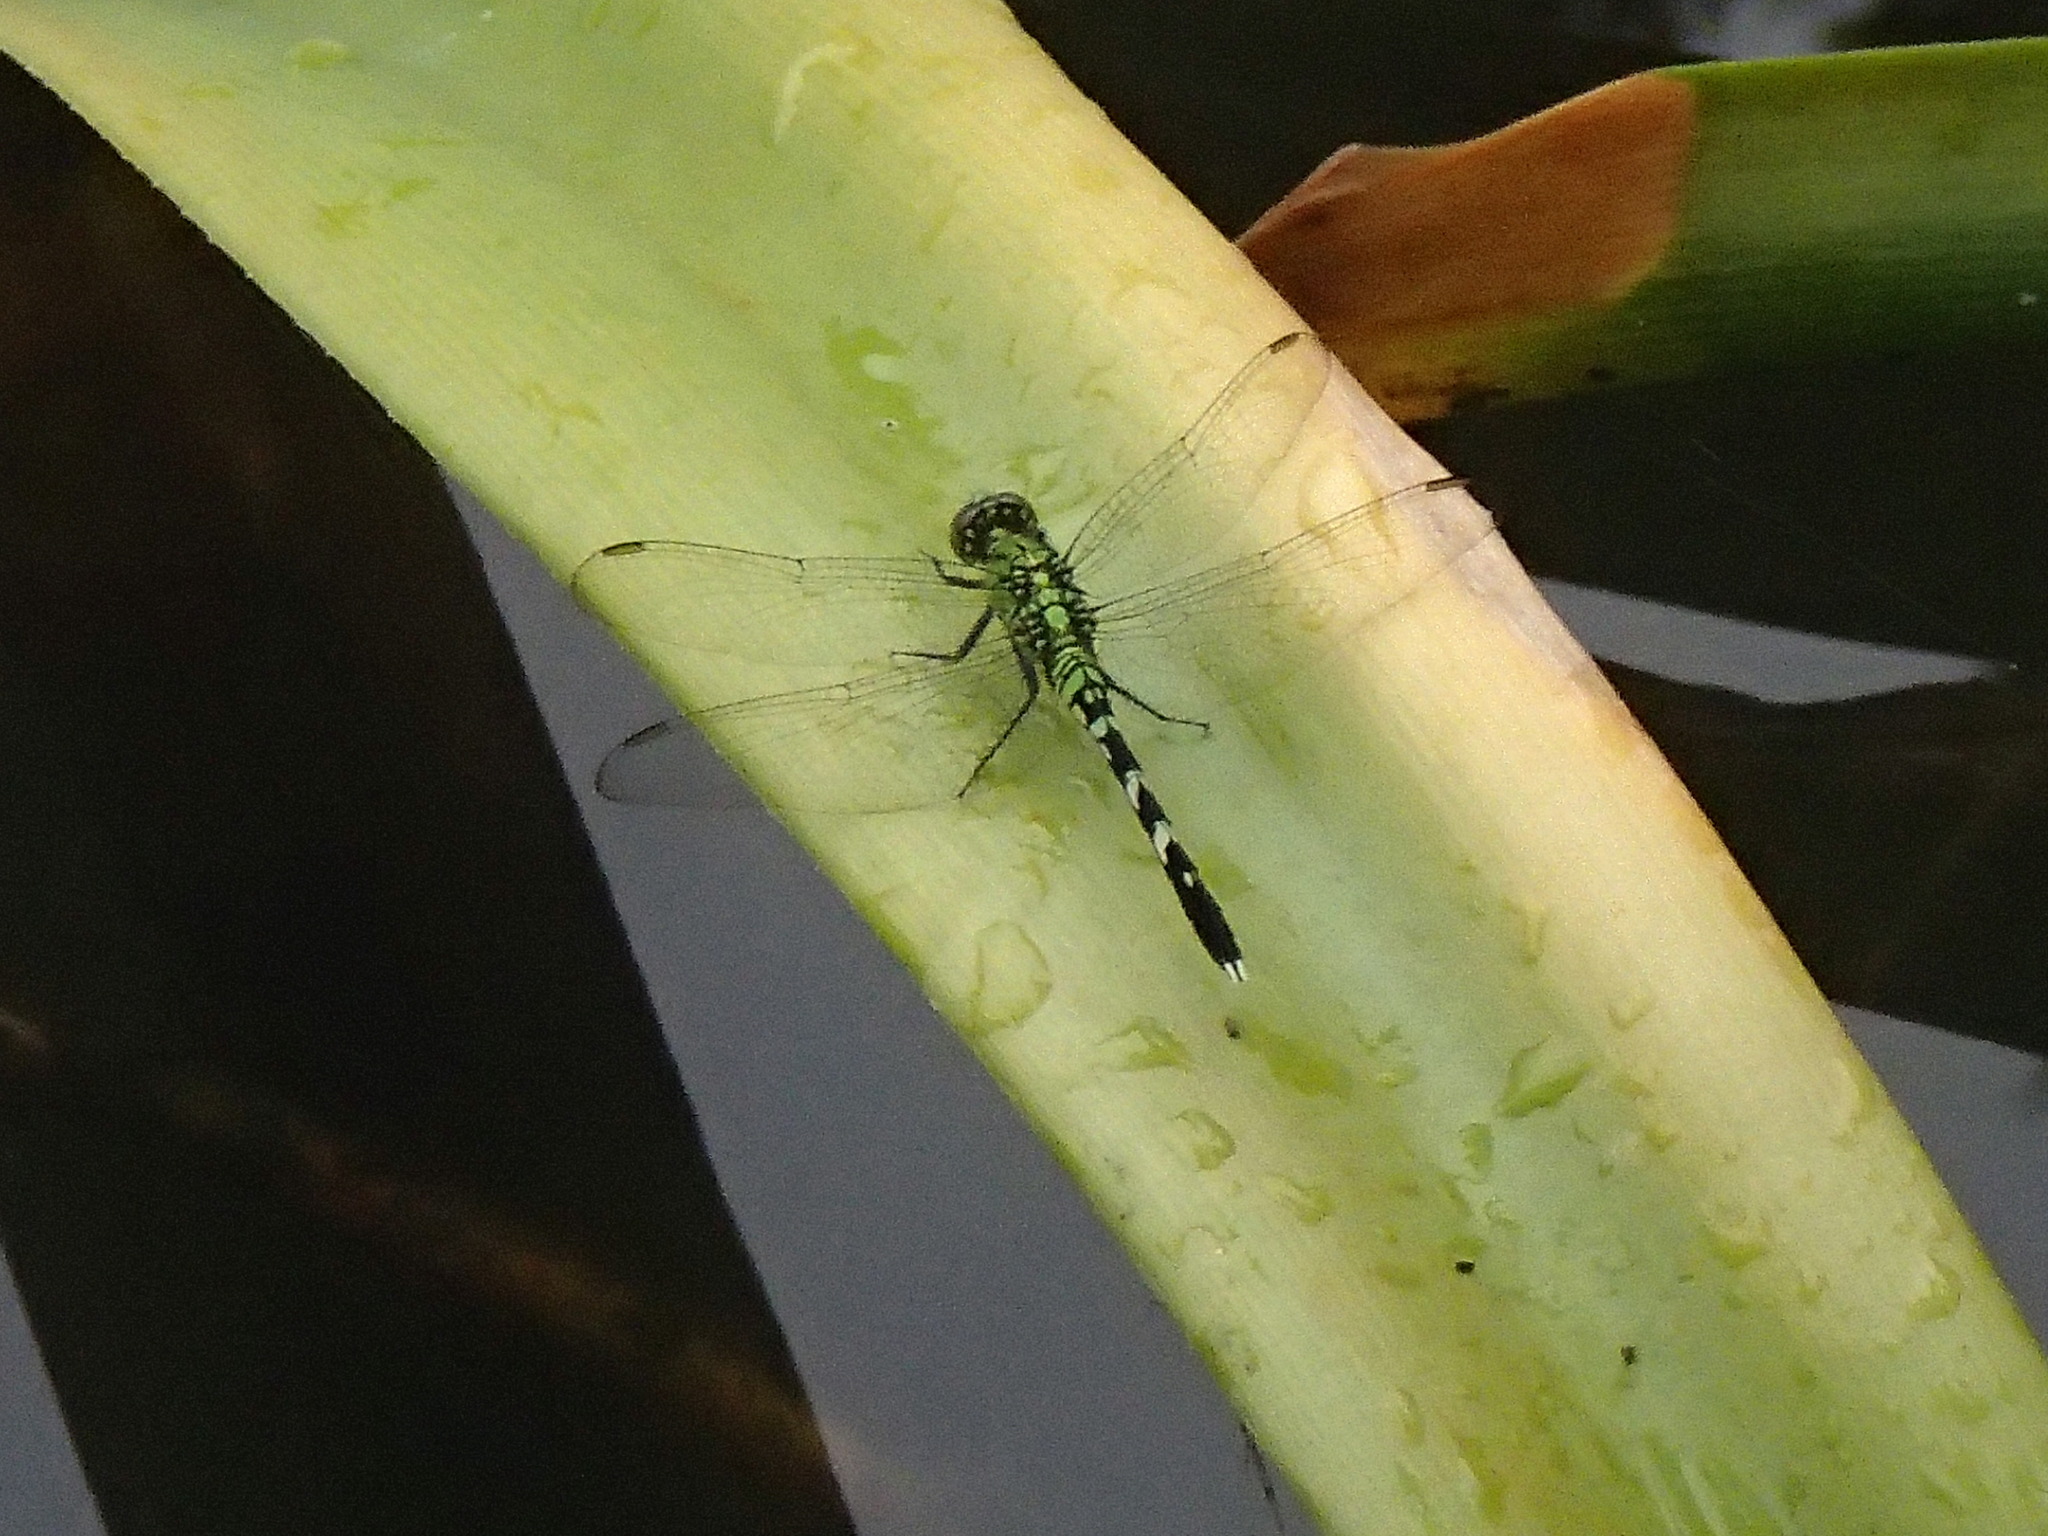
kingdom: Animalia
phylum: Arthropoda
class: Insecta
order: Odonata
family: Libellulidae
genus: Erythemis
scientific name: Erythemis simplicicollis
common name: Eastern pondhawk
